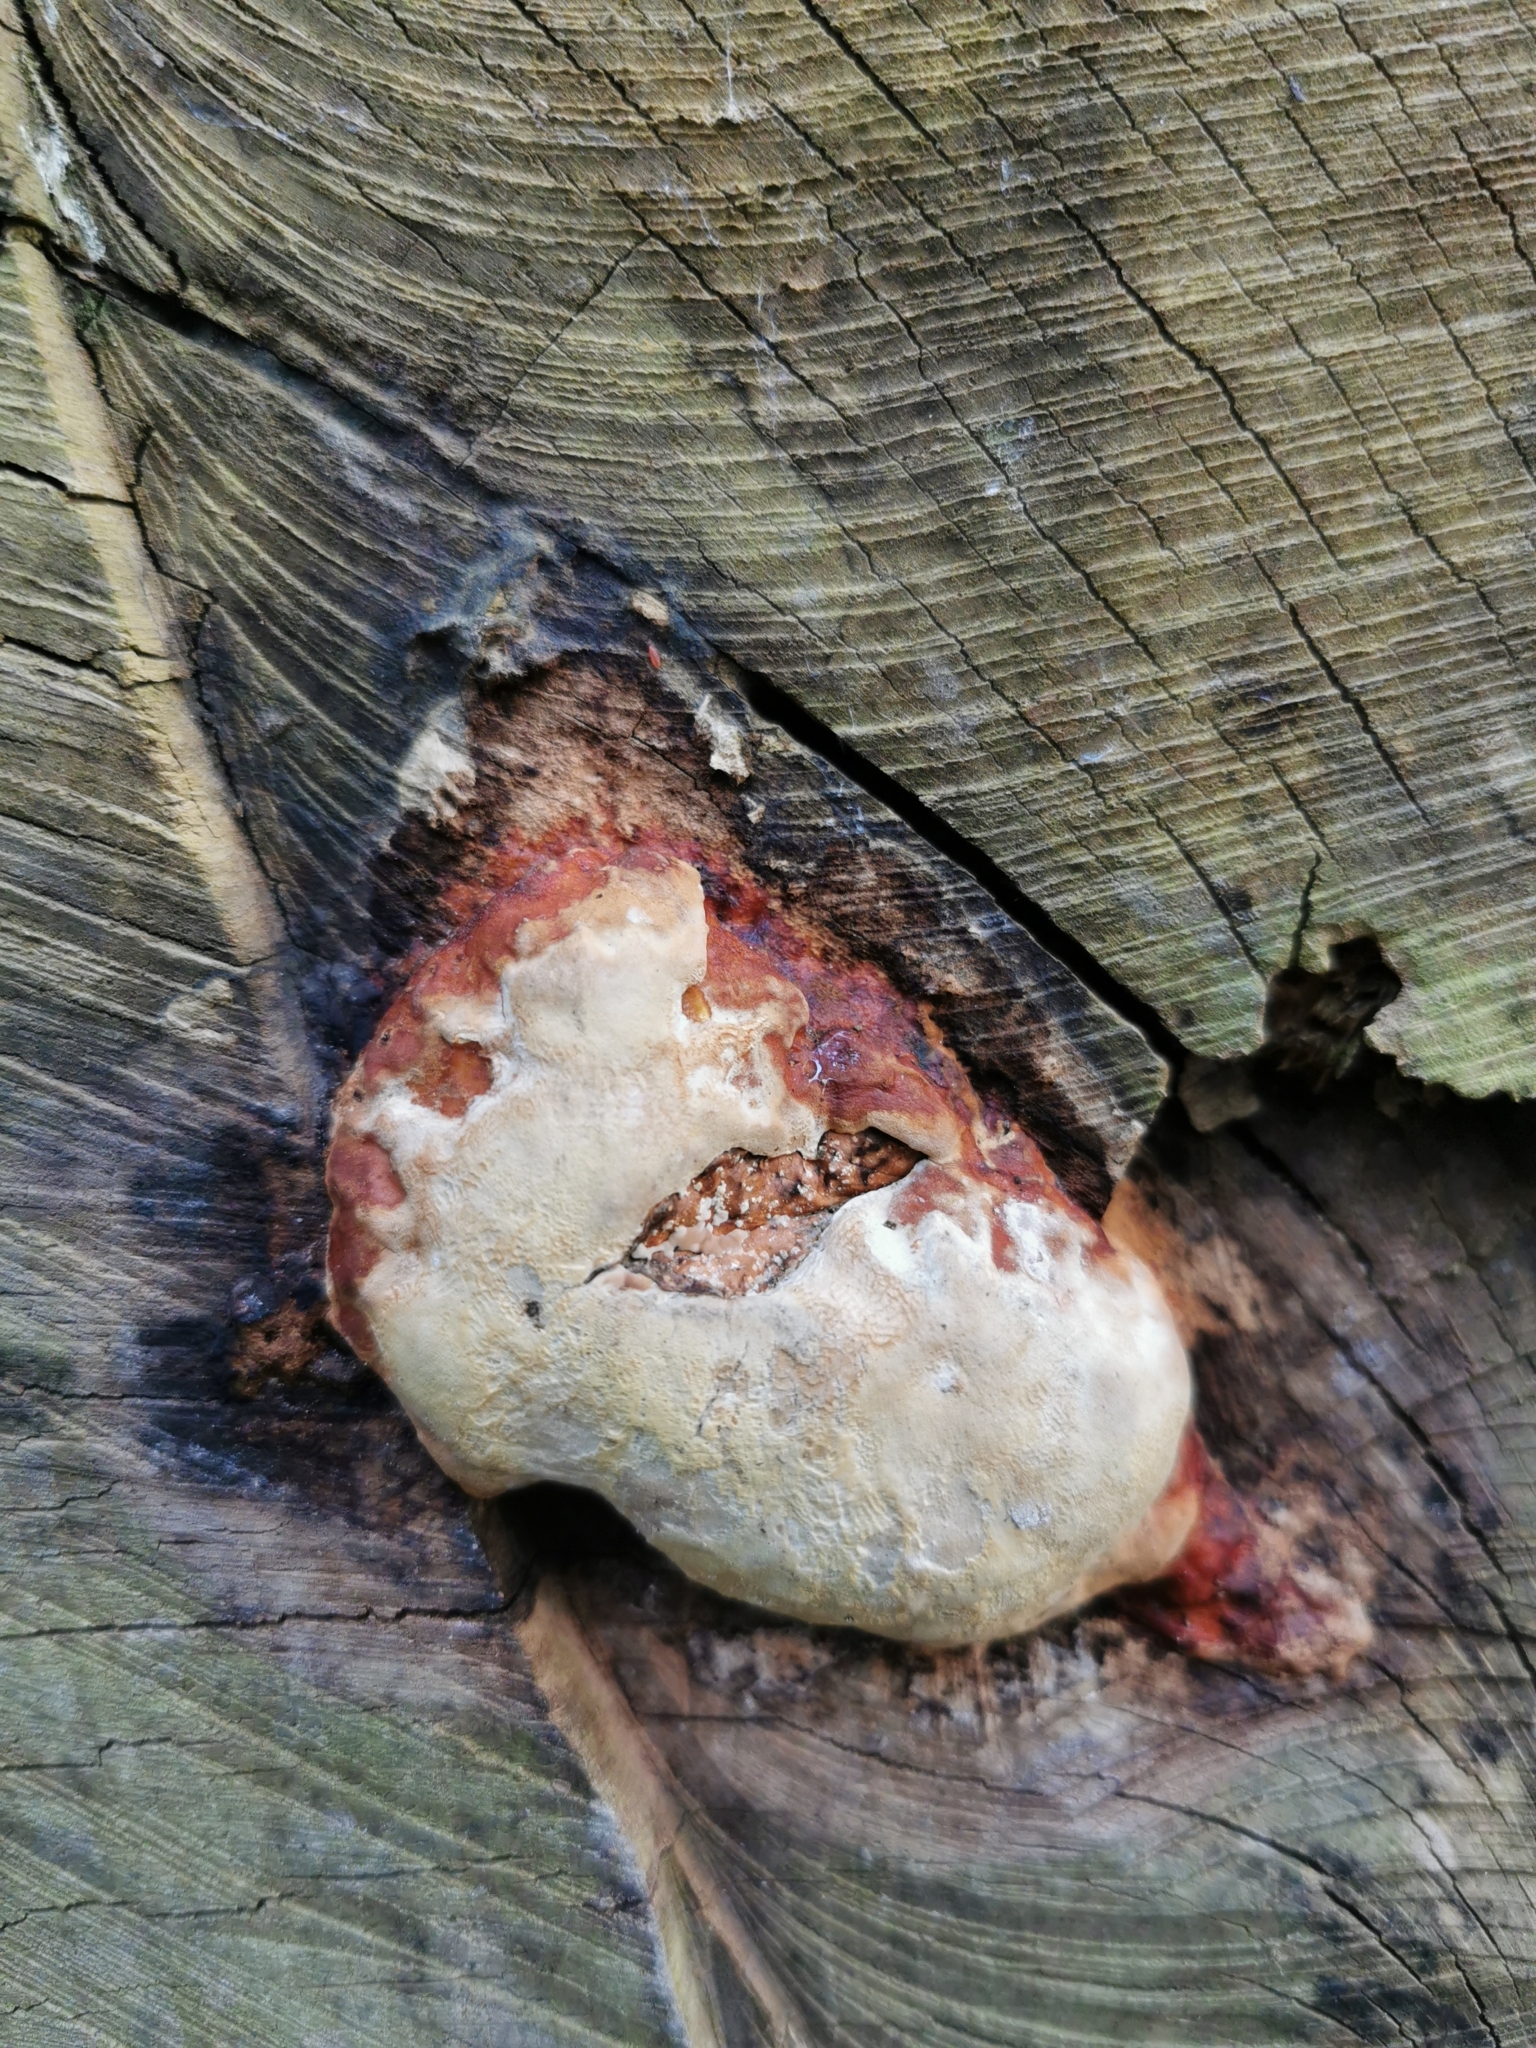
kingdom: Fungi
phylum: Basidiomycota
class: Agaricomycetes
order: Polyporales
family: Fomitopsidaceae
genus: Fomitopsis
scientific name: Fomitopsis pinicola
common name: Red-belted bracket
